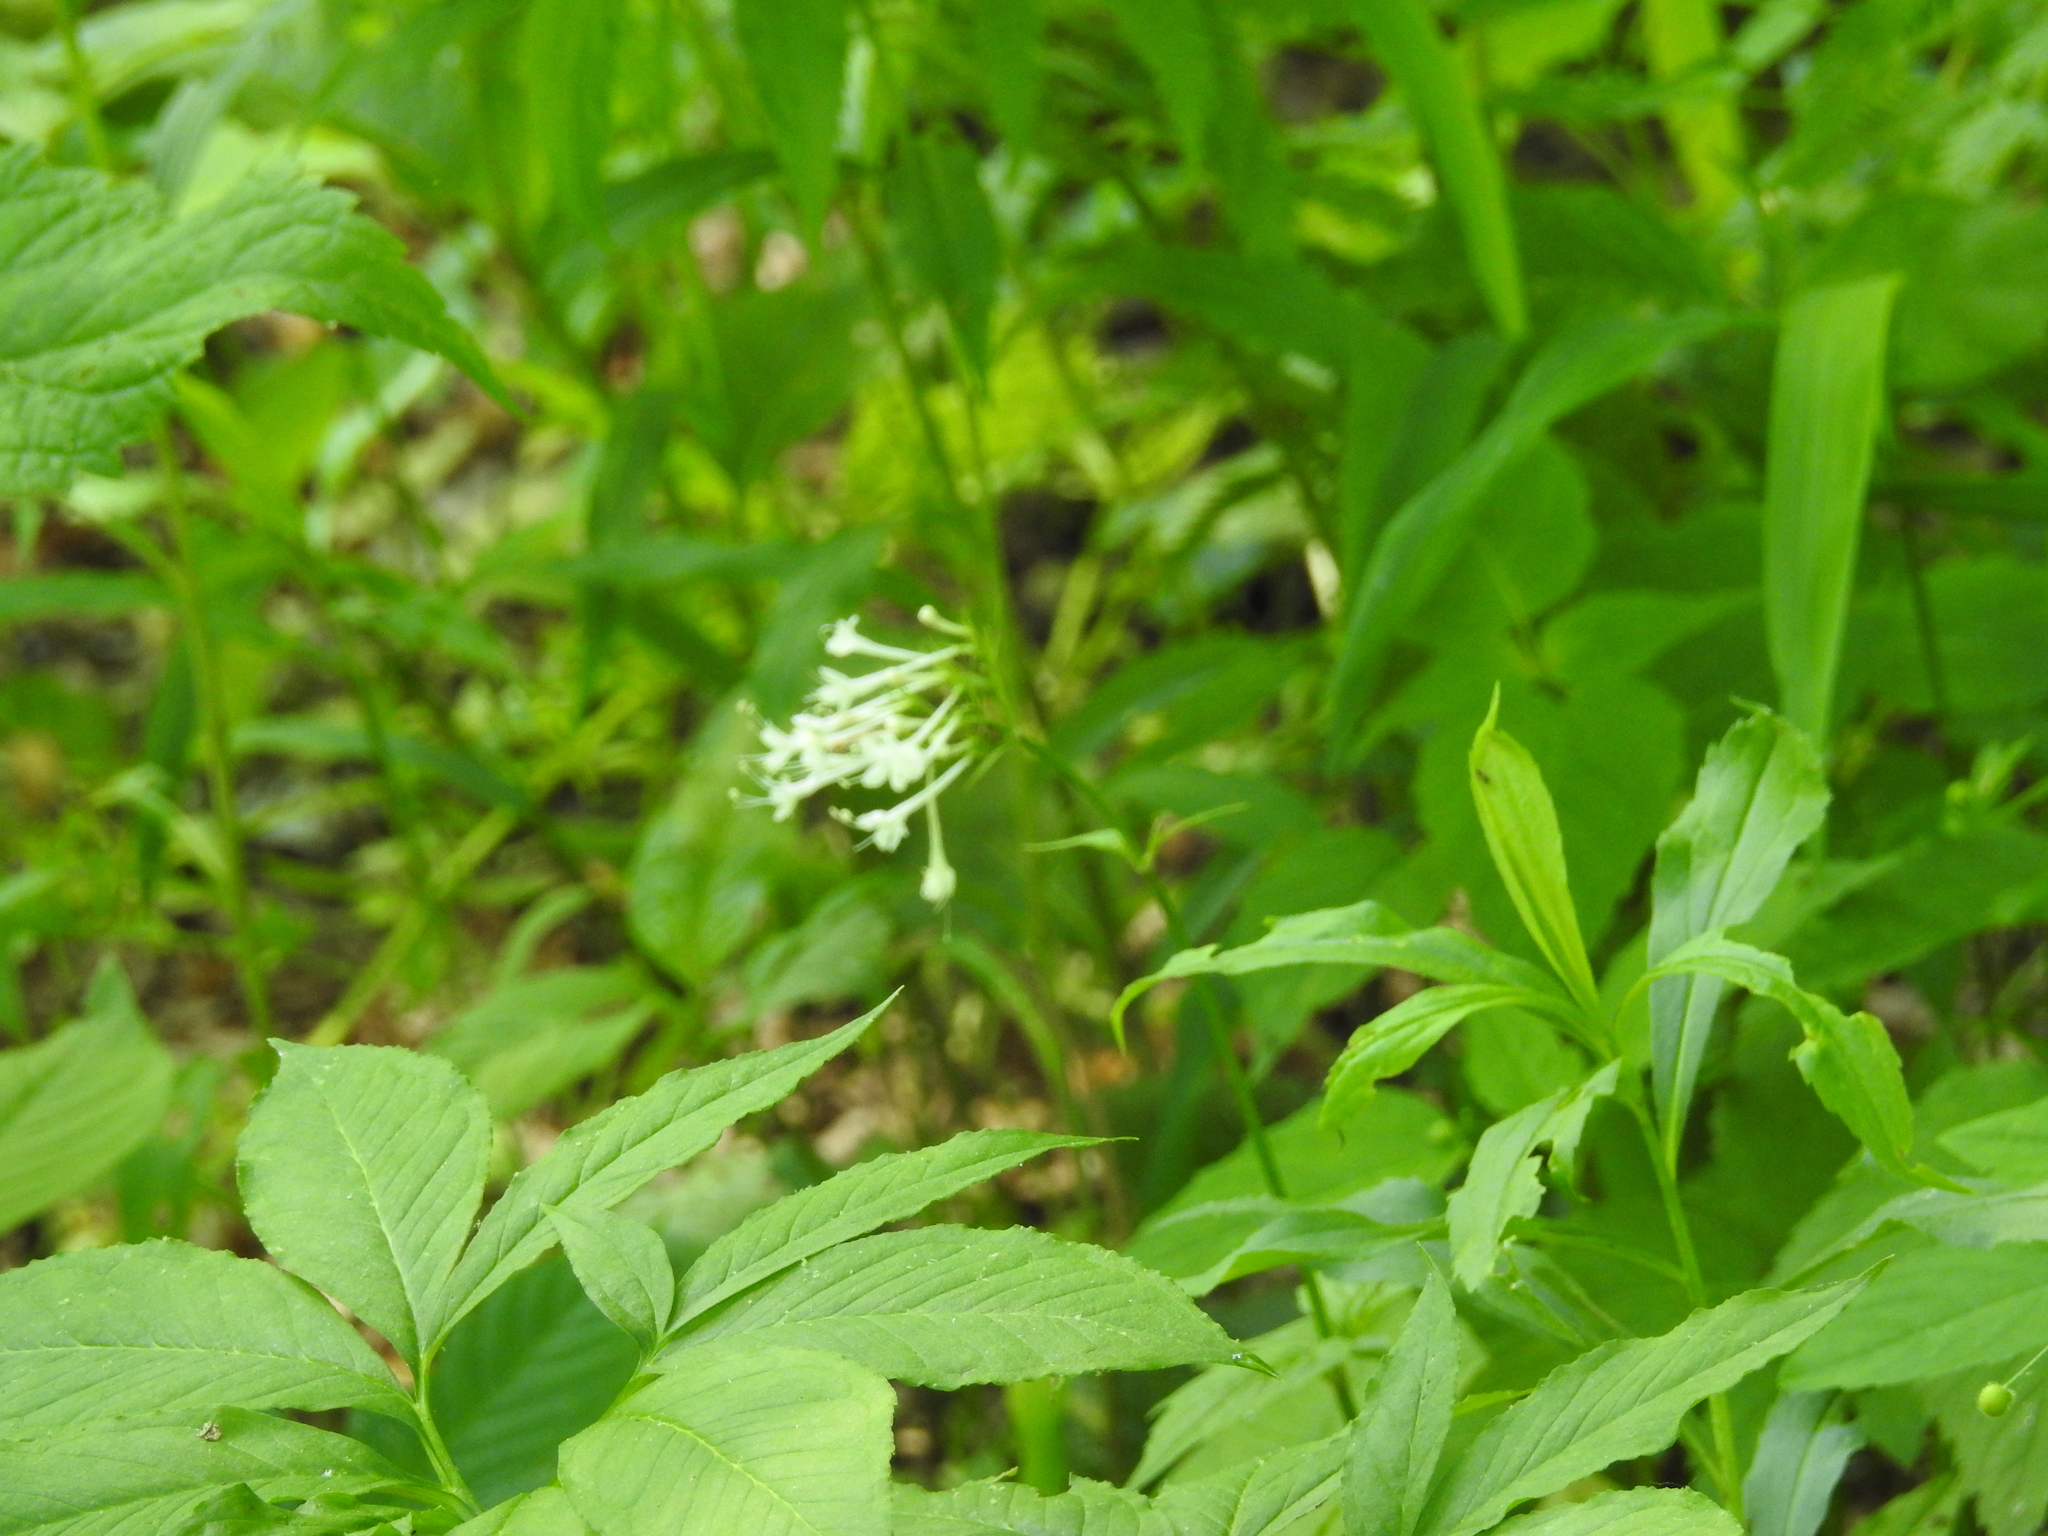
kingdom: Plantae
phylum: Tracheophyta
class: Magnoliopsida
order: Dipsacales
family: Caprifoliaceae
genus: Valeriana
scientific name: Valeriana pauciflora
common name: Long-tube valeriana
